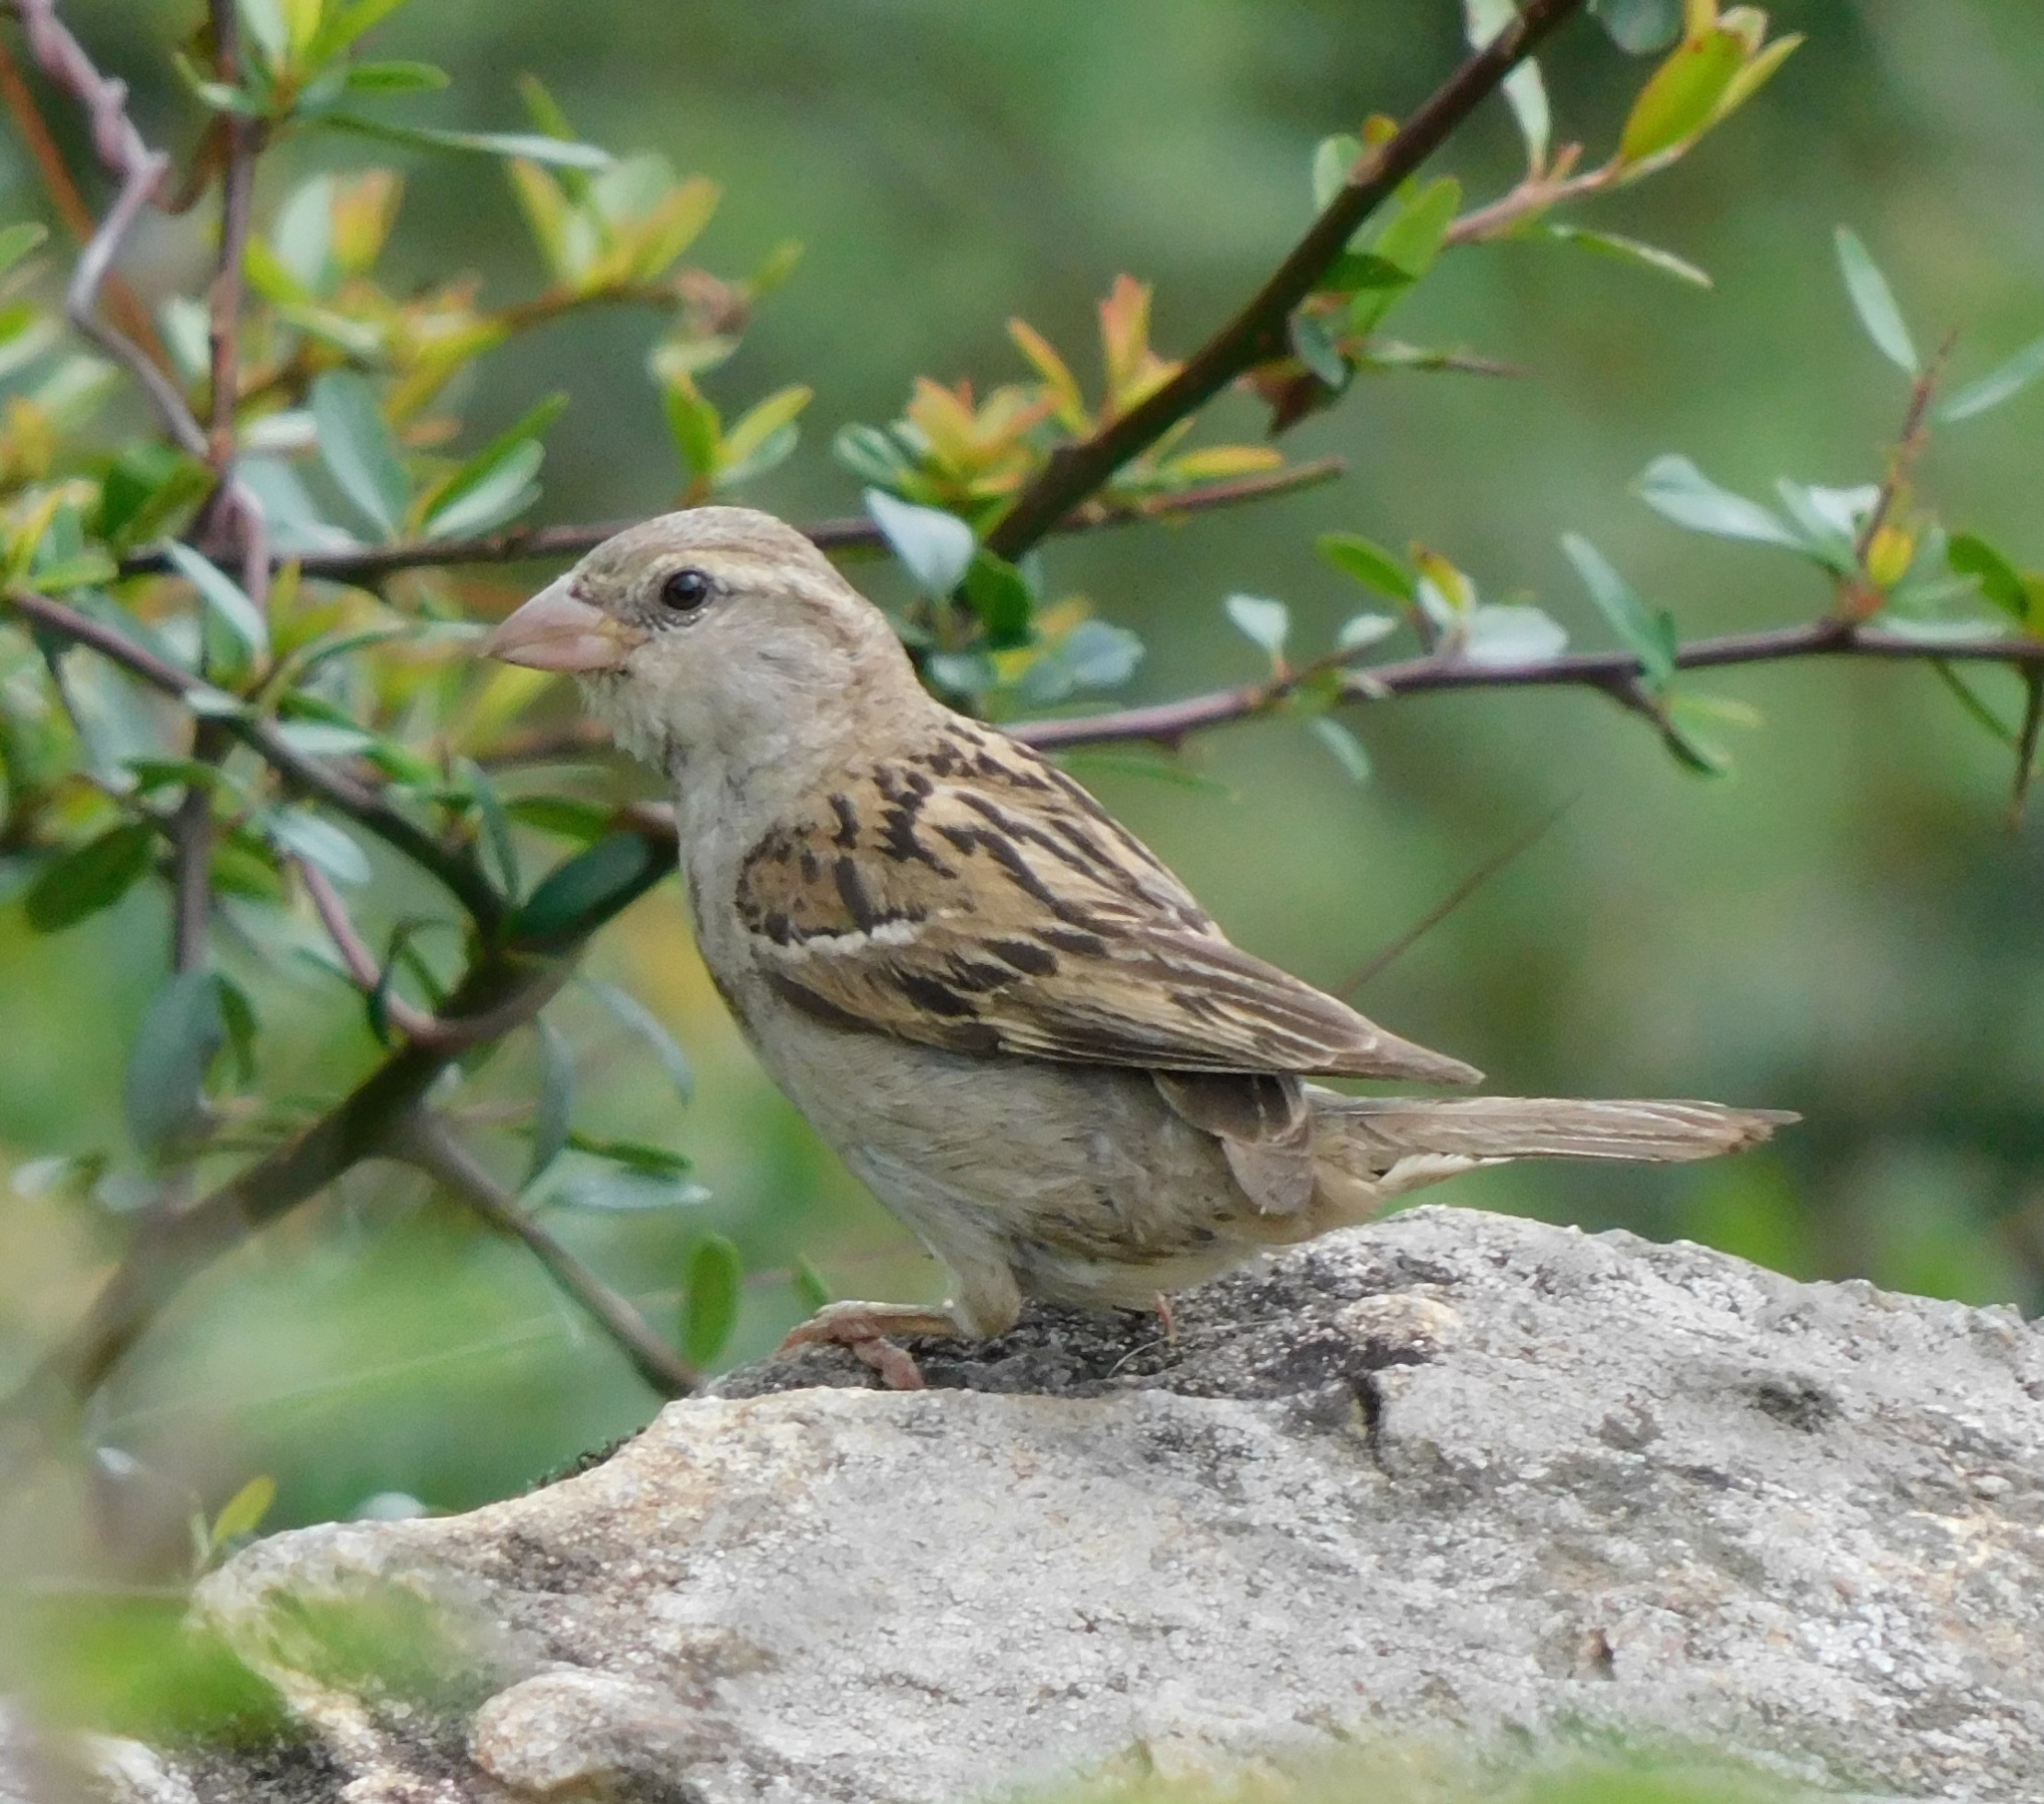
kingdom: Animalia
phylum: Chordata
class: Aves
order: Passeriformes
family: Passeridae
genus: Passer
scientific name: Passer domesticus
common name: House sparrow
